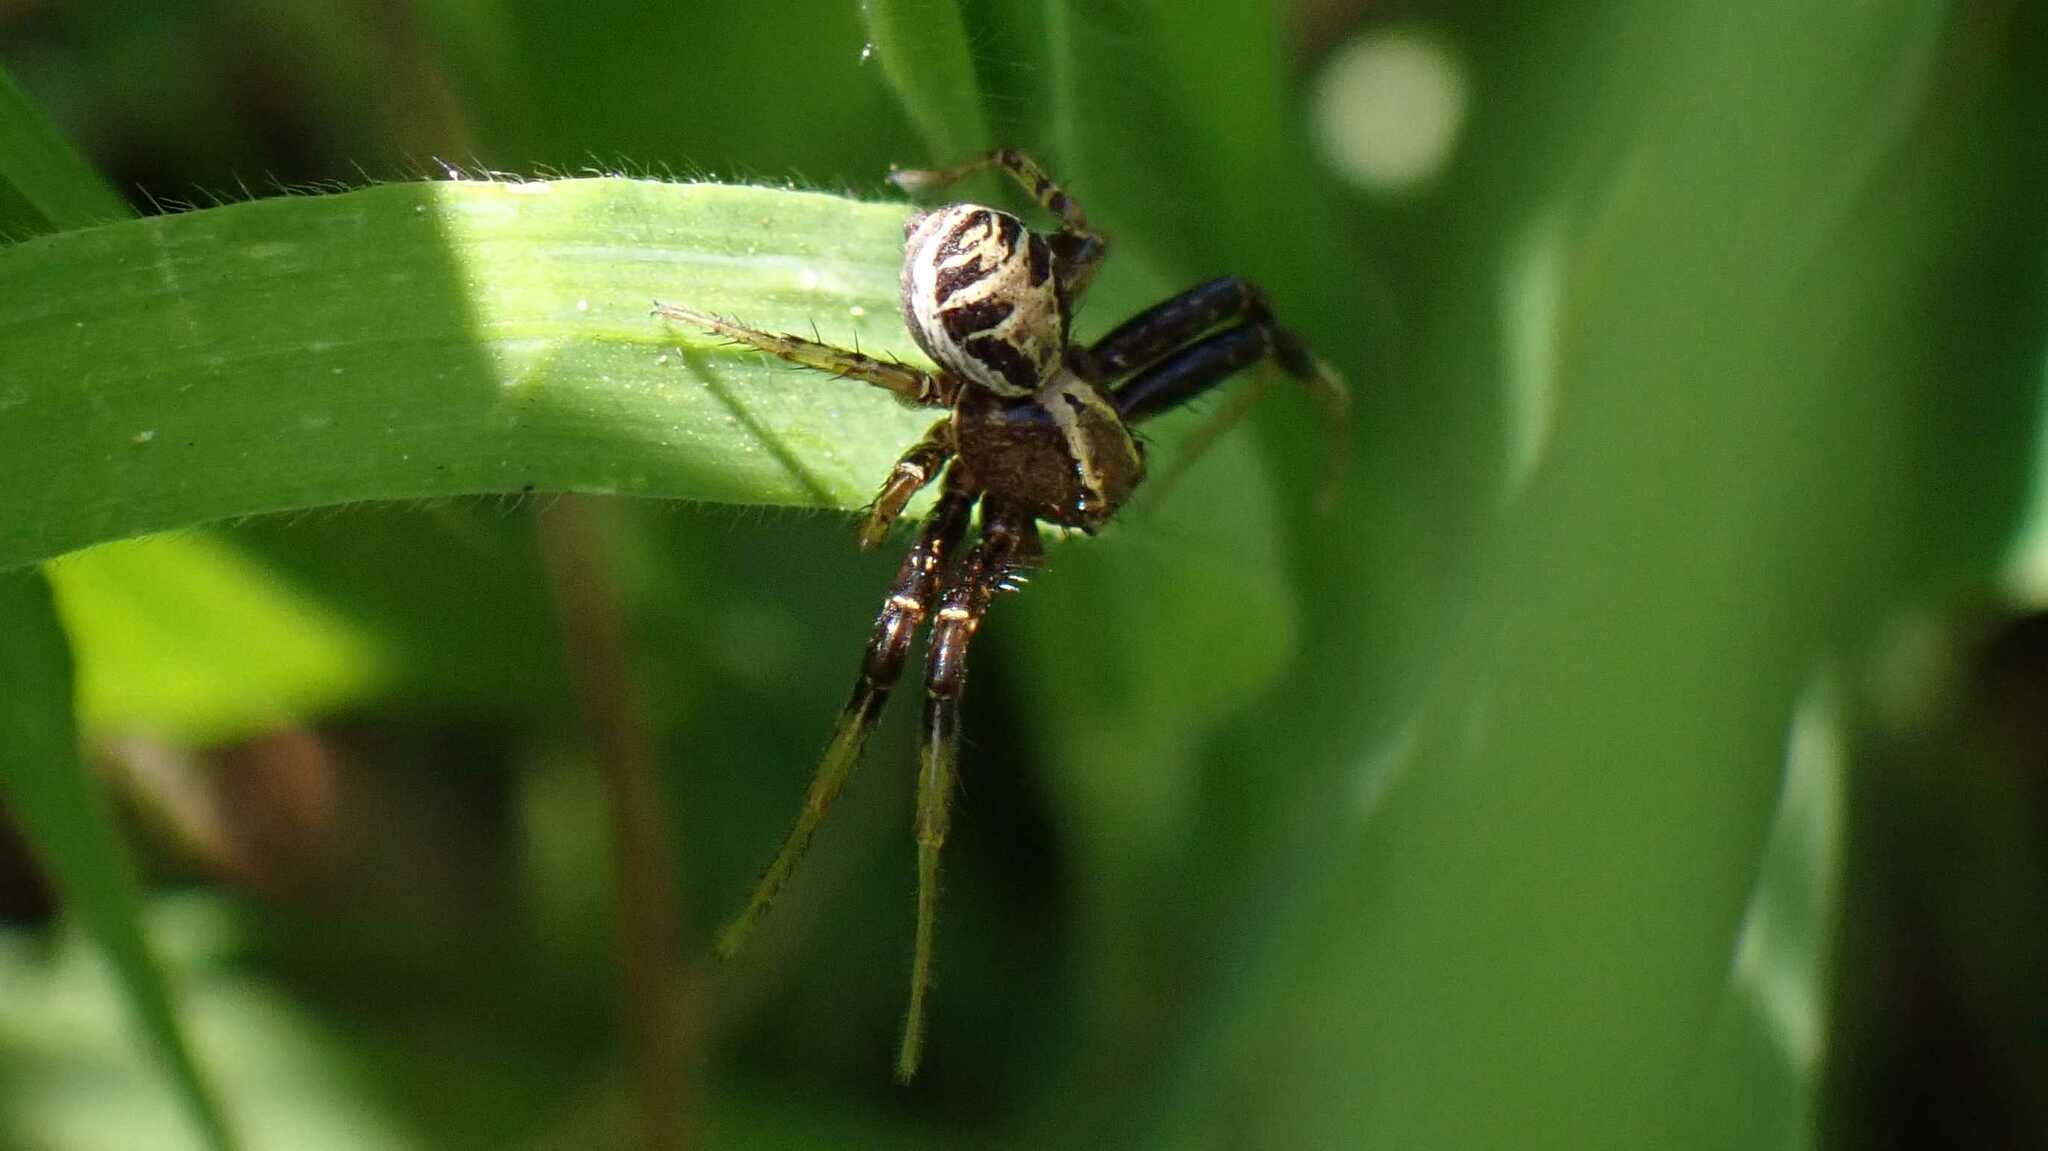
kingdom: Animalia
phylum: Arthropoda
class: Arachnida
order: Araneae
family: Thomisidae
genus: Xysticus
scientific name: Xysticus
